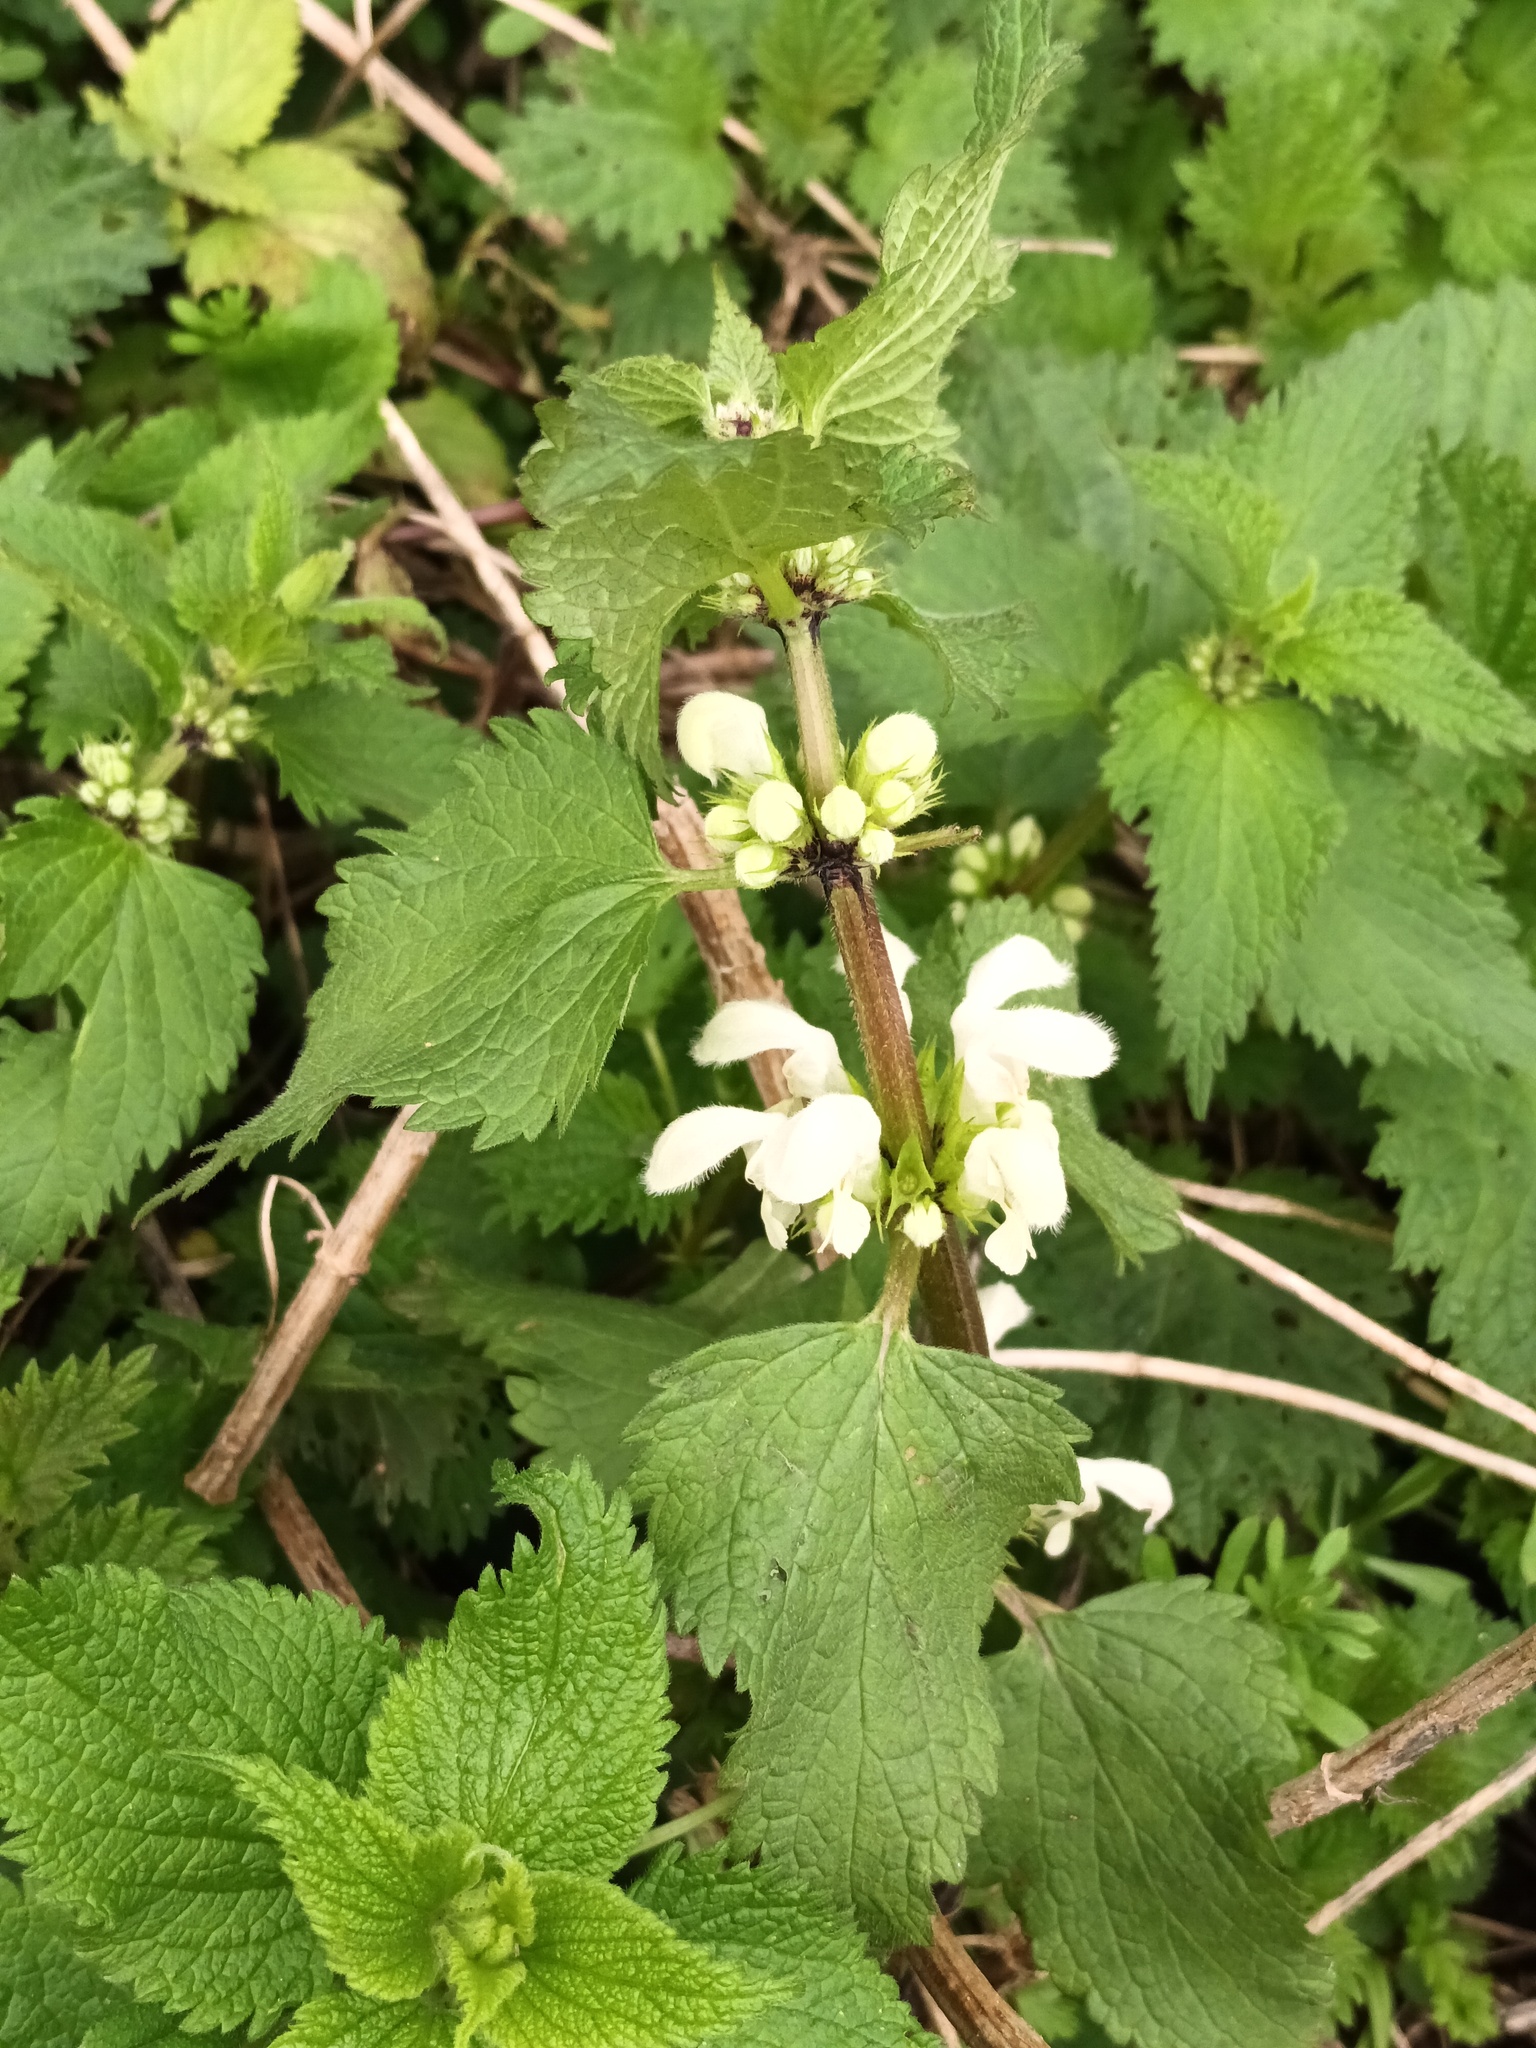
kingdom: Plantae
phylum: Tracheophyta
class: Magnoliopsida
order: Lamiales
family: Lamiaceae
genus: Lamium
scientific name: Lamium album
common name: White dead-nettle
